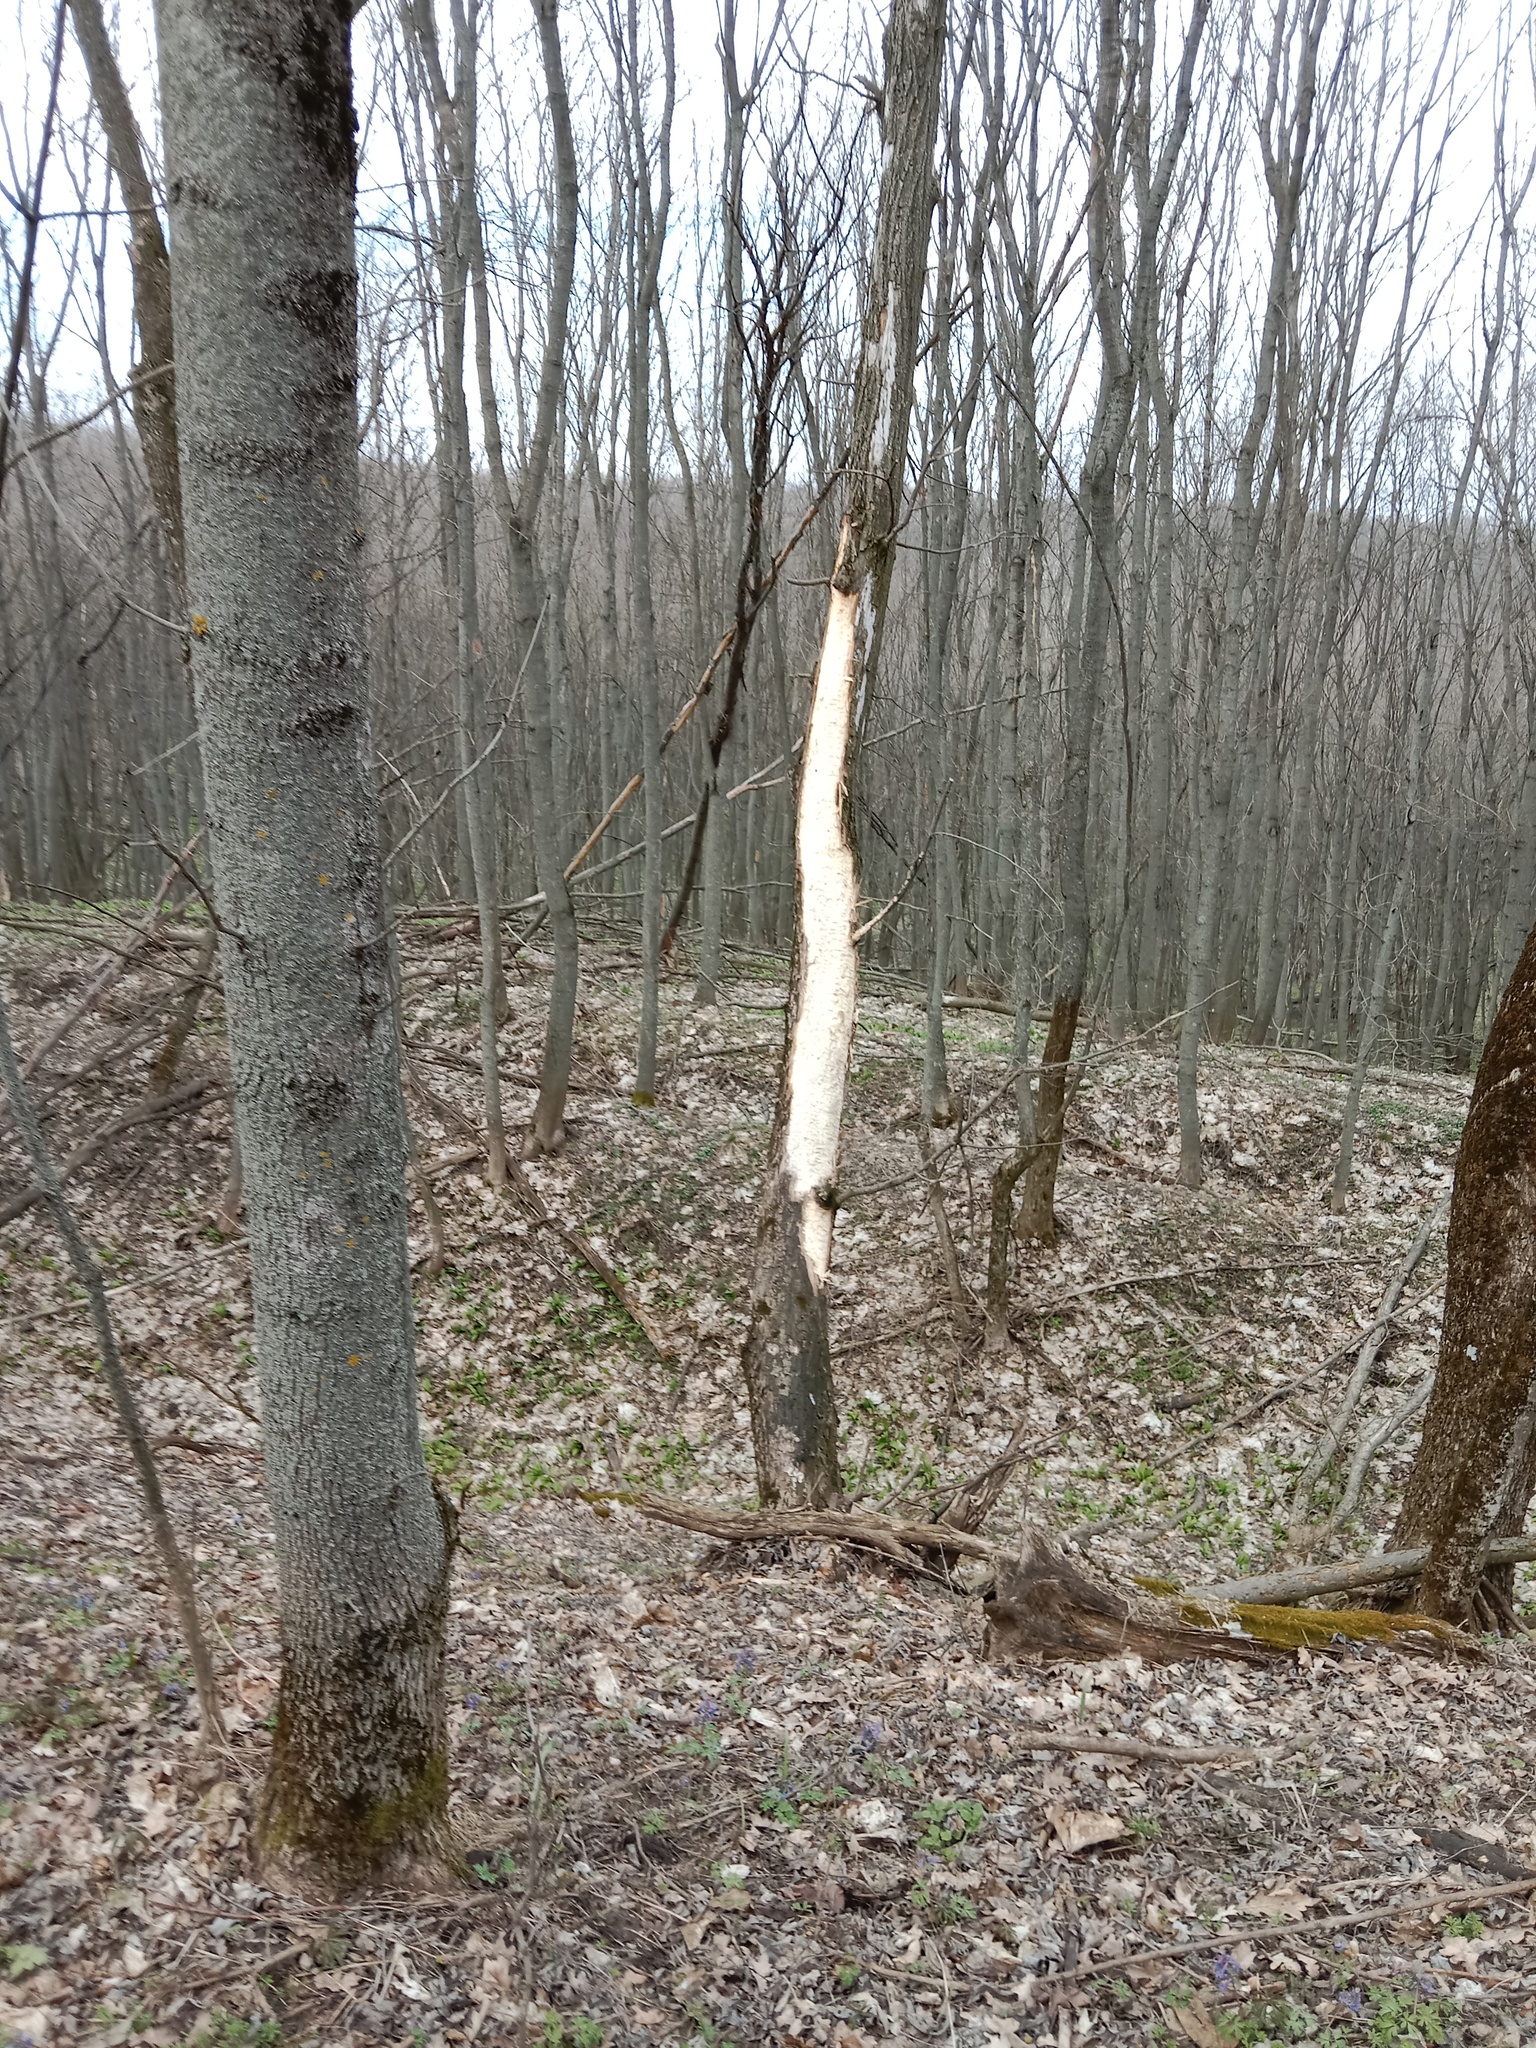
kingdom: Animalia
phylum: Chordata
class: Aves
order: Piciformes
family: Picidae
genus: Dryocopus
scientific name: Dryocopus martius
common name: Black woodpecker
